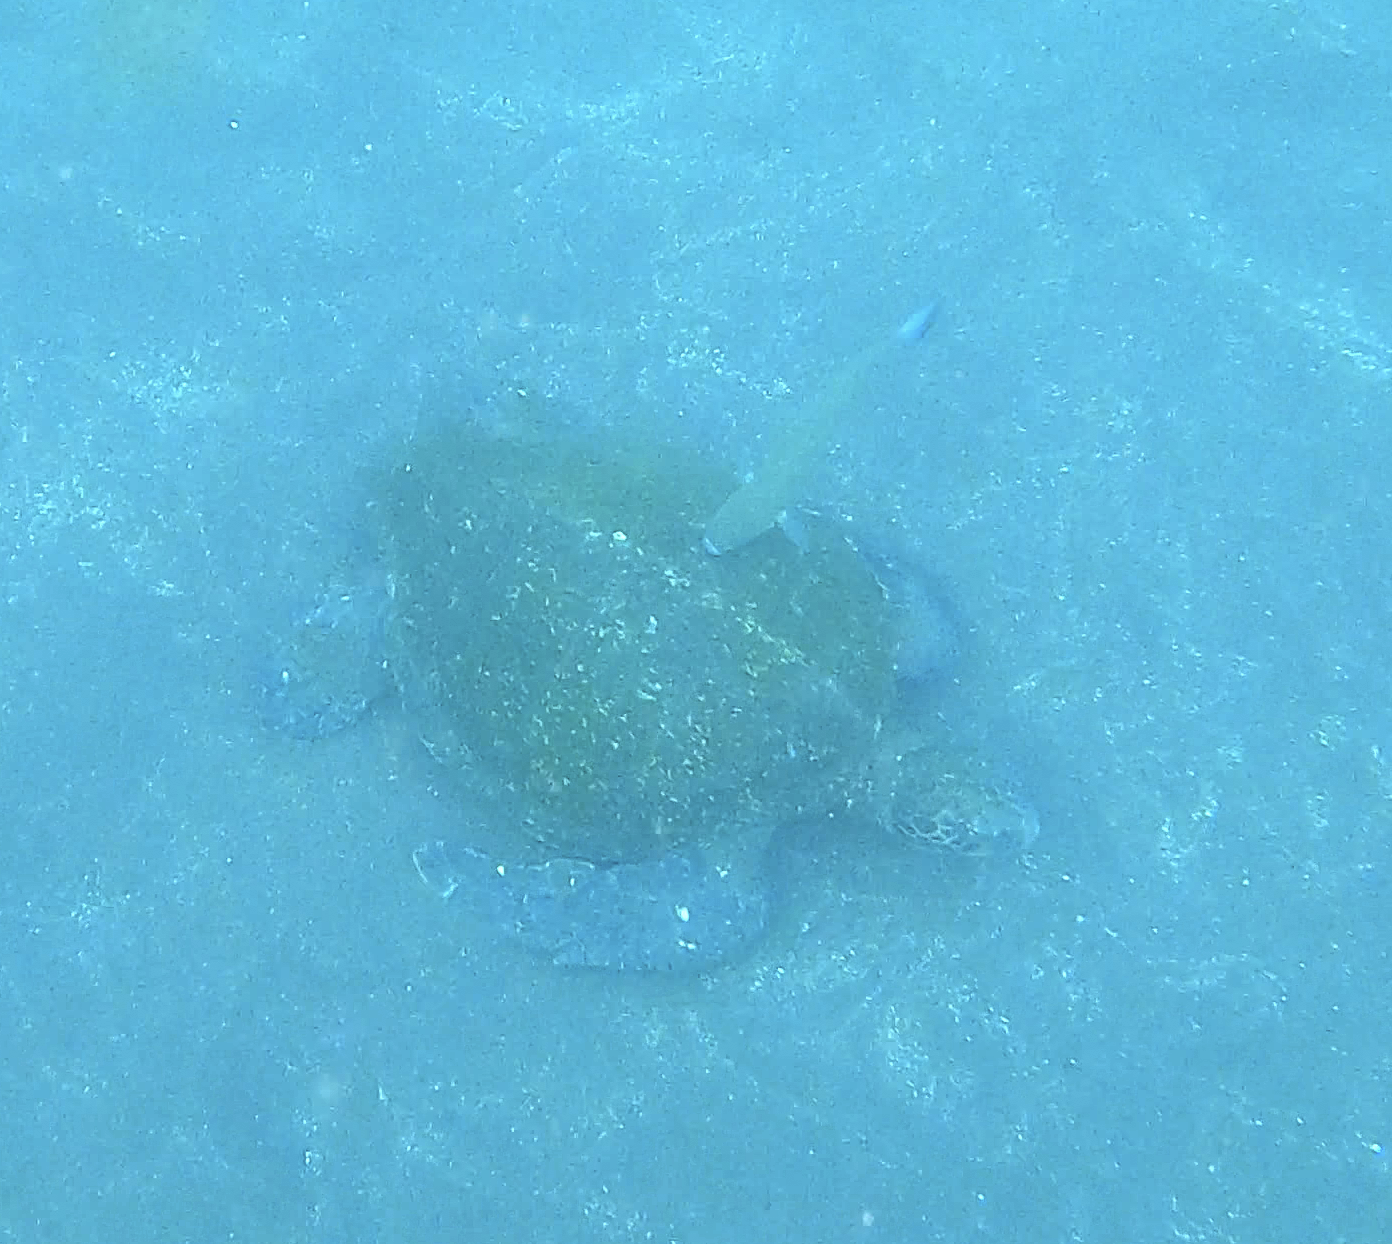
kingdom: Animalia
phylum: Chordata
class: Testudines
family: Cheloniidae
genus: Chelonia
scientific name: Chelonia mydas
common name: Green turtle
